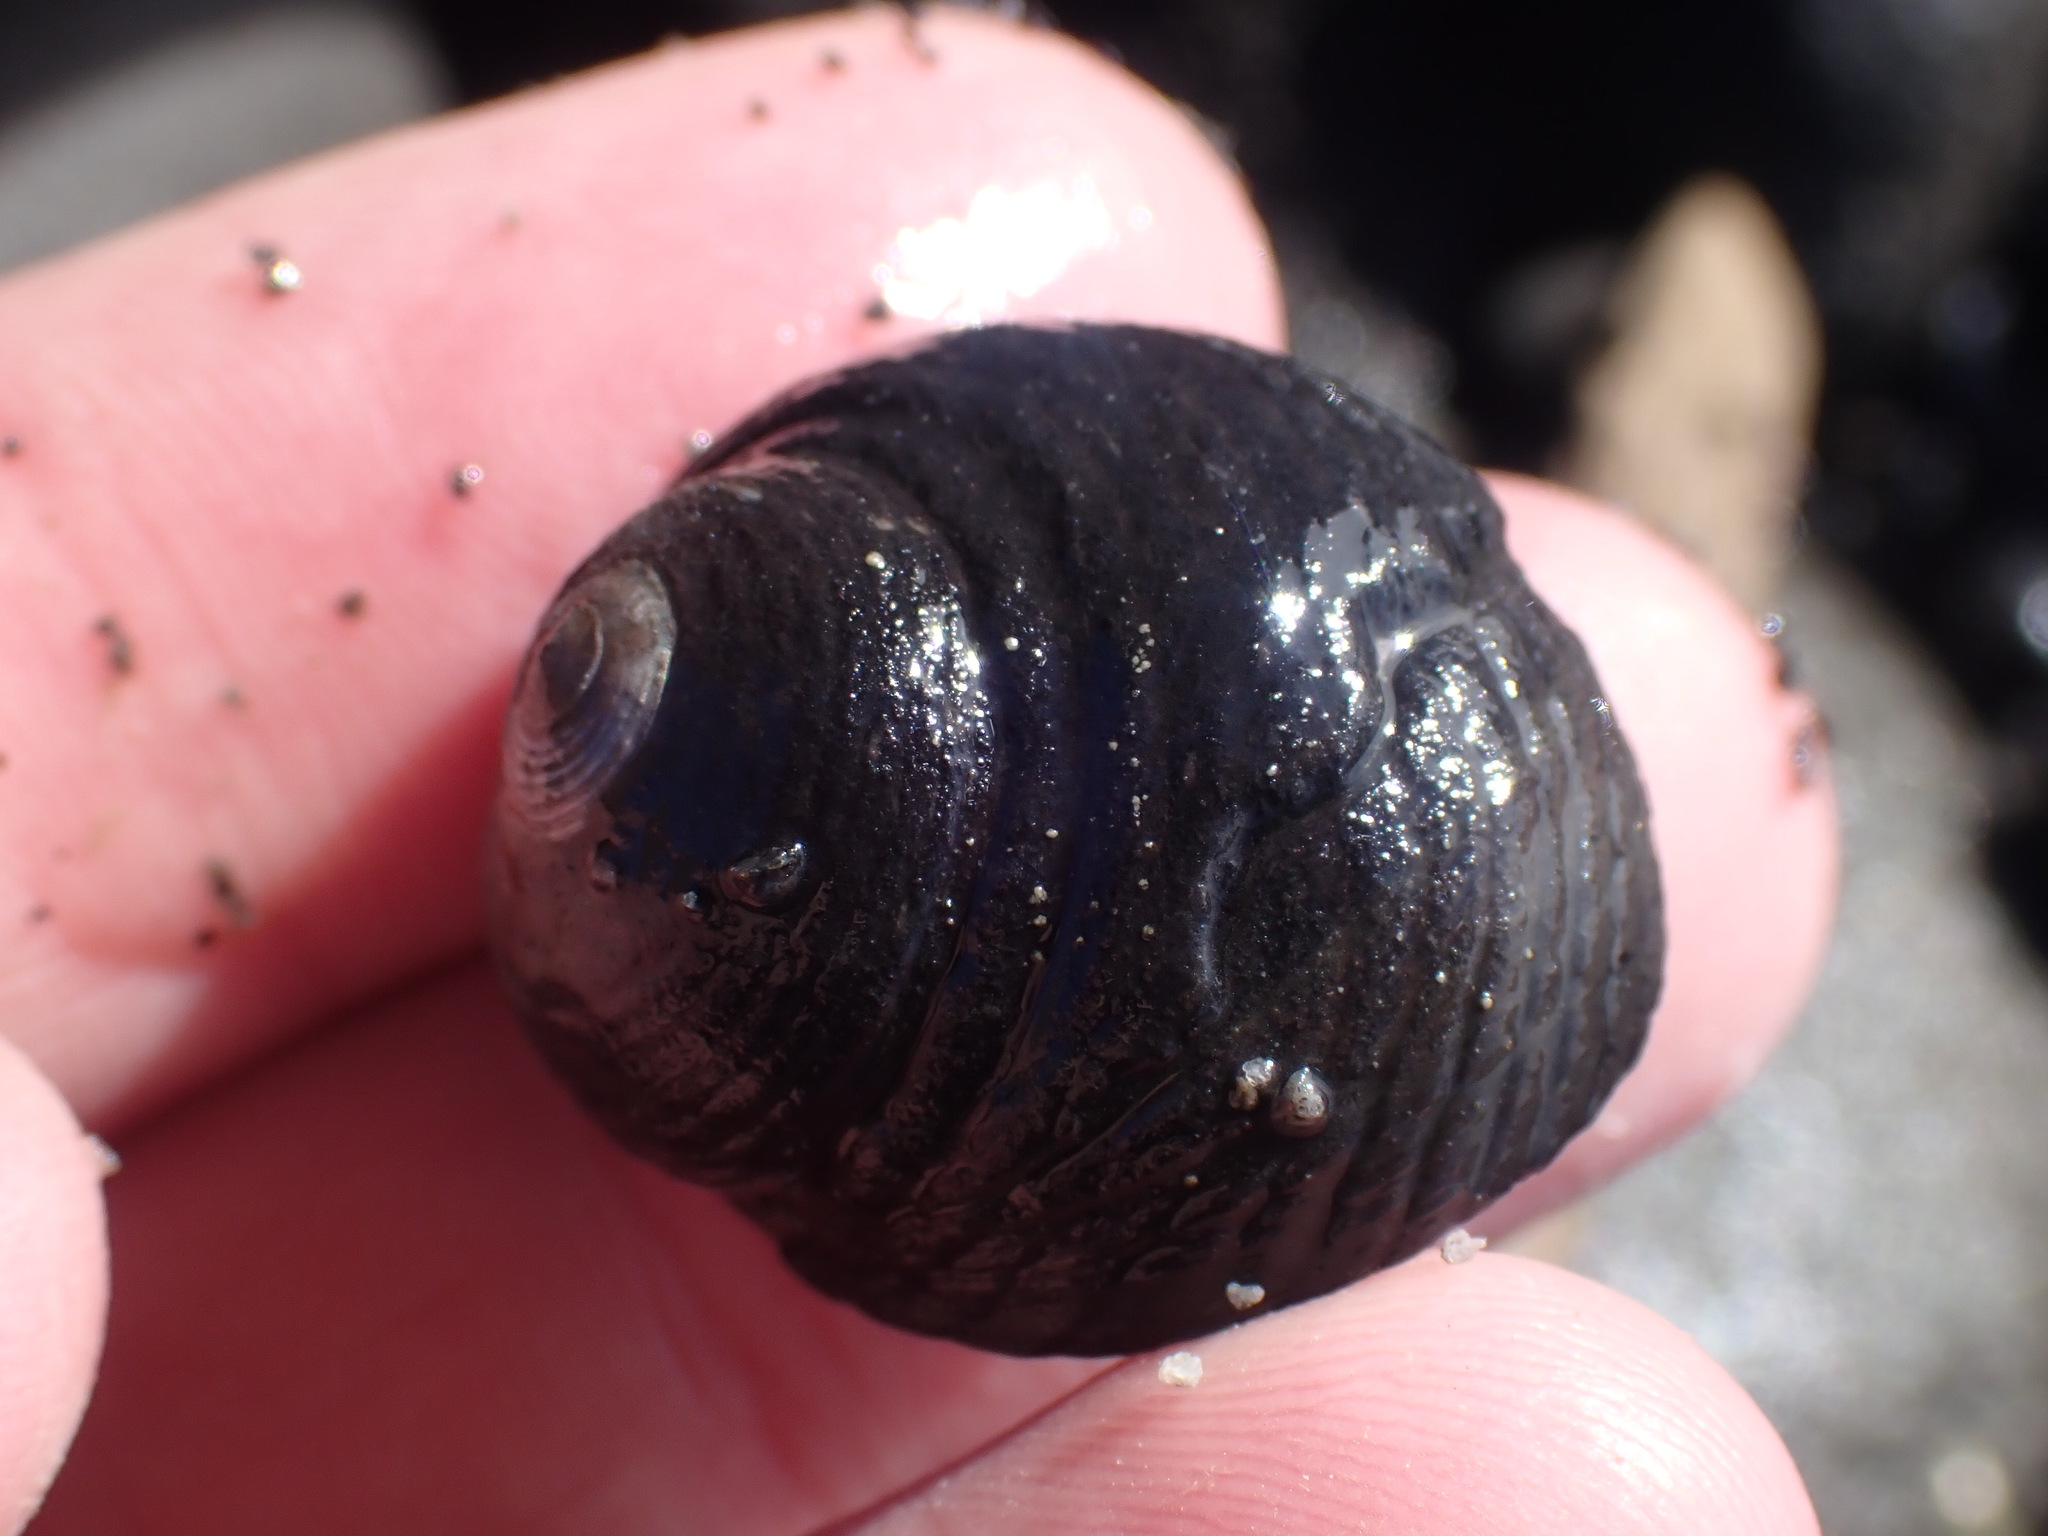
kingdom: Animalia
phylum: Mollusca
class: Gastropoda
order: Trochida
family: Trochidae
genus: Diloma
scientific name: Diloma zelandicum
